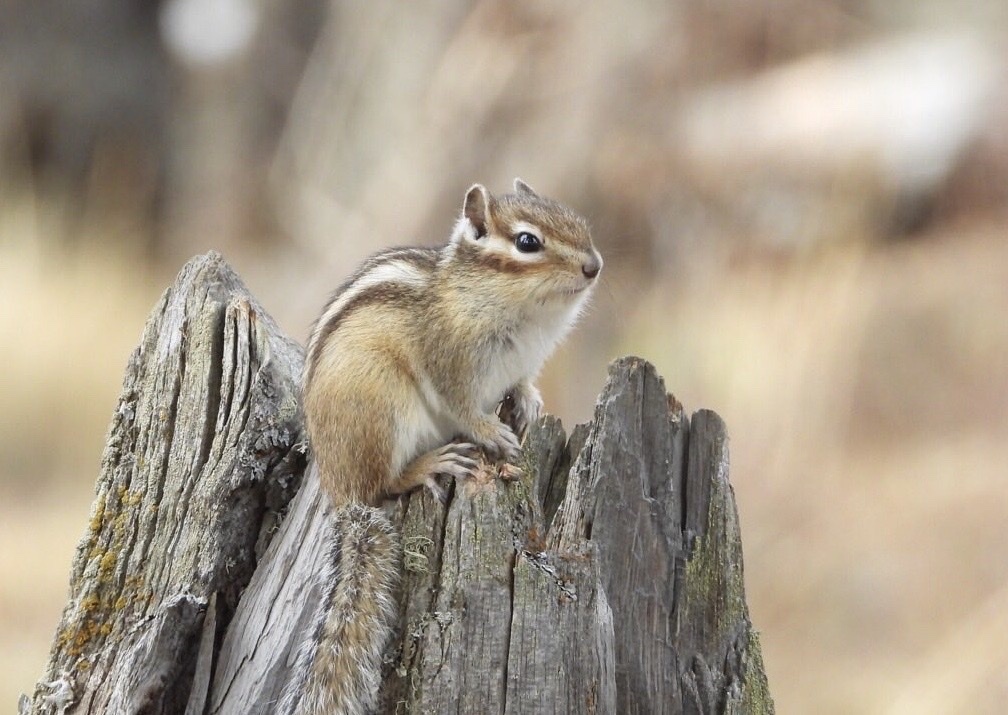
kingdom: Animalia
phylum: Chordata
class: Mammalia
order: Rodentia
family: Sciuridae
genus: Tamias
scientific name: Tamias sibiricus
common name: Siberian chipmunk
